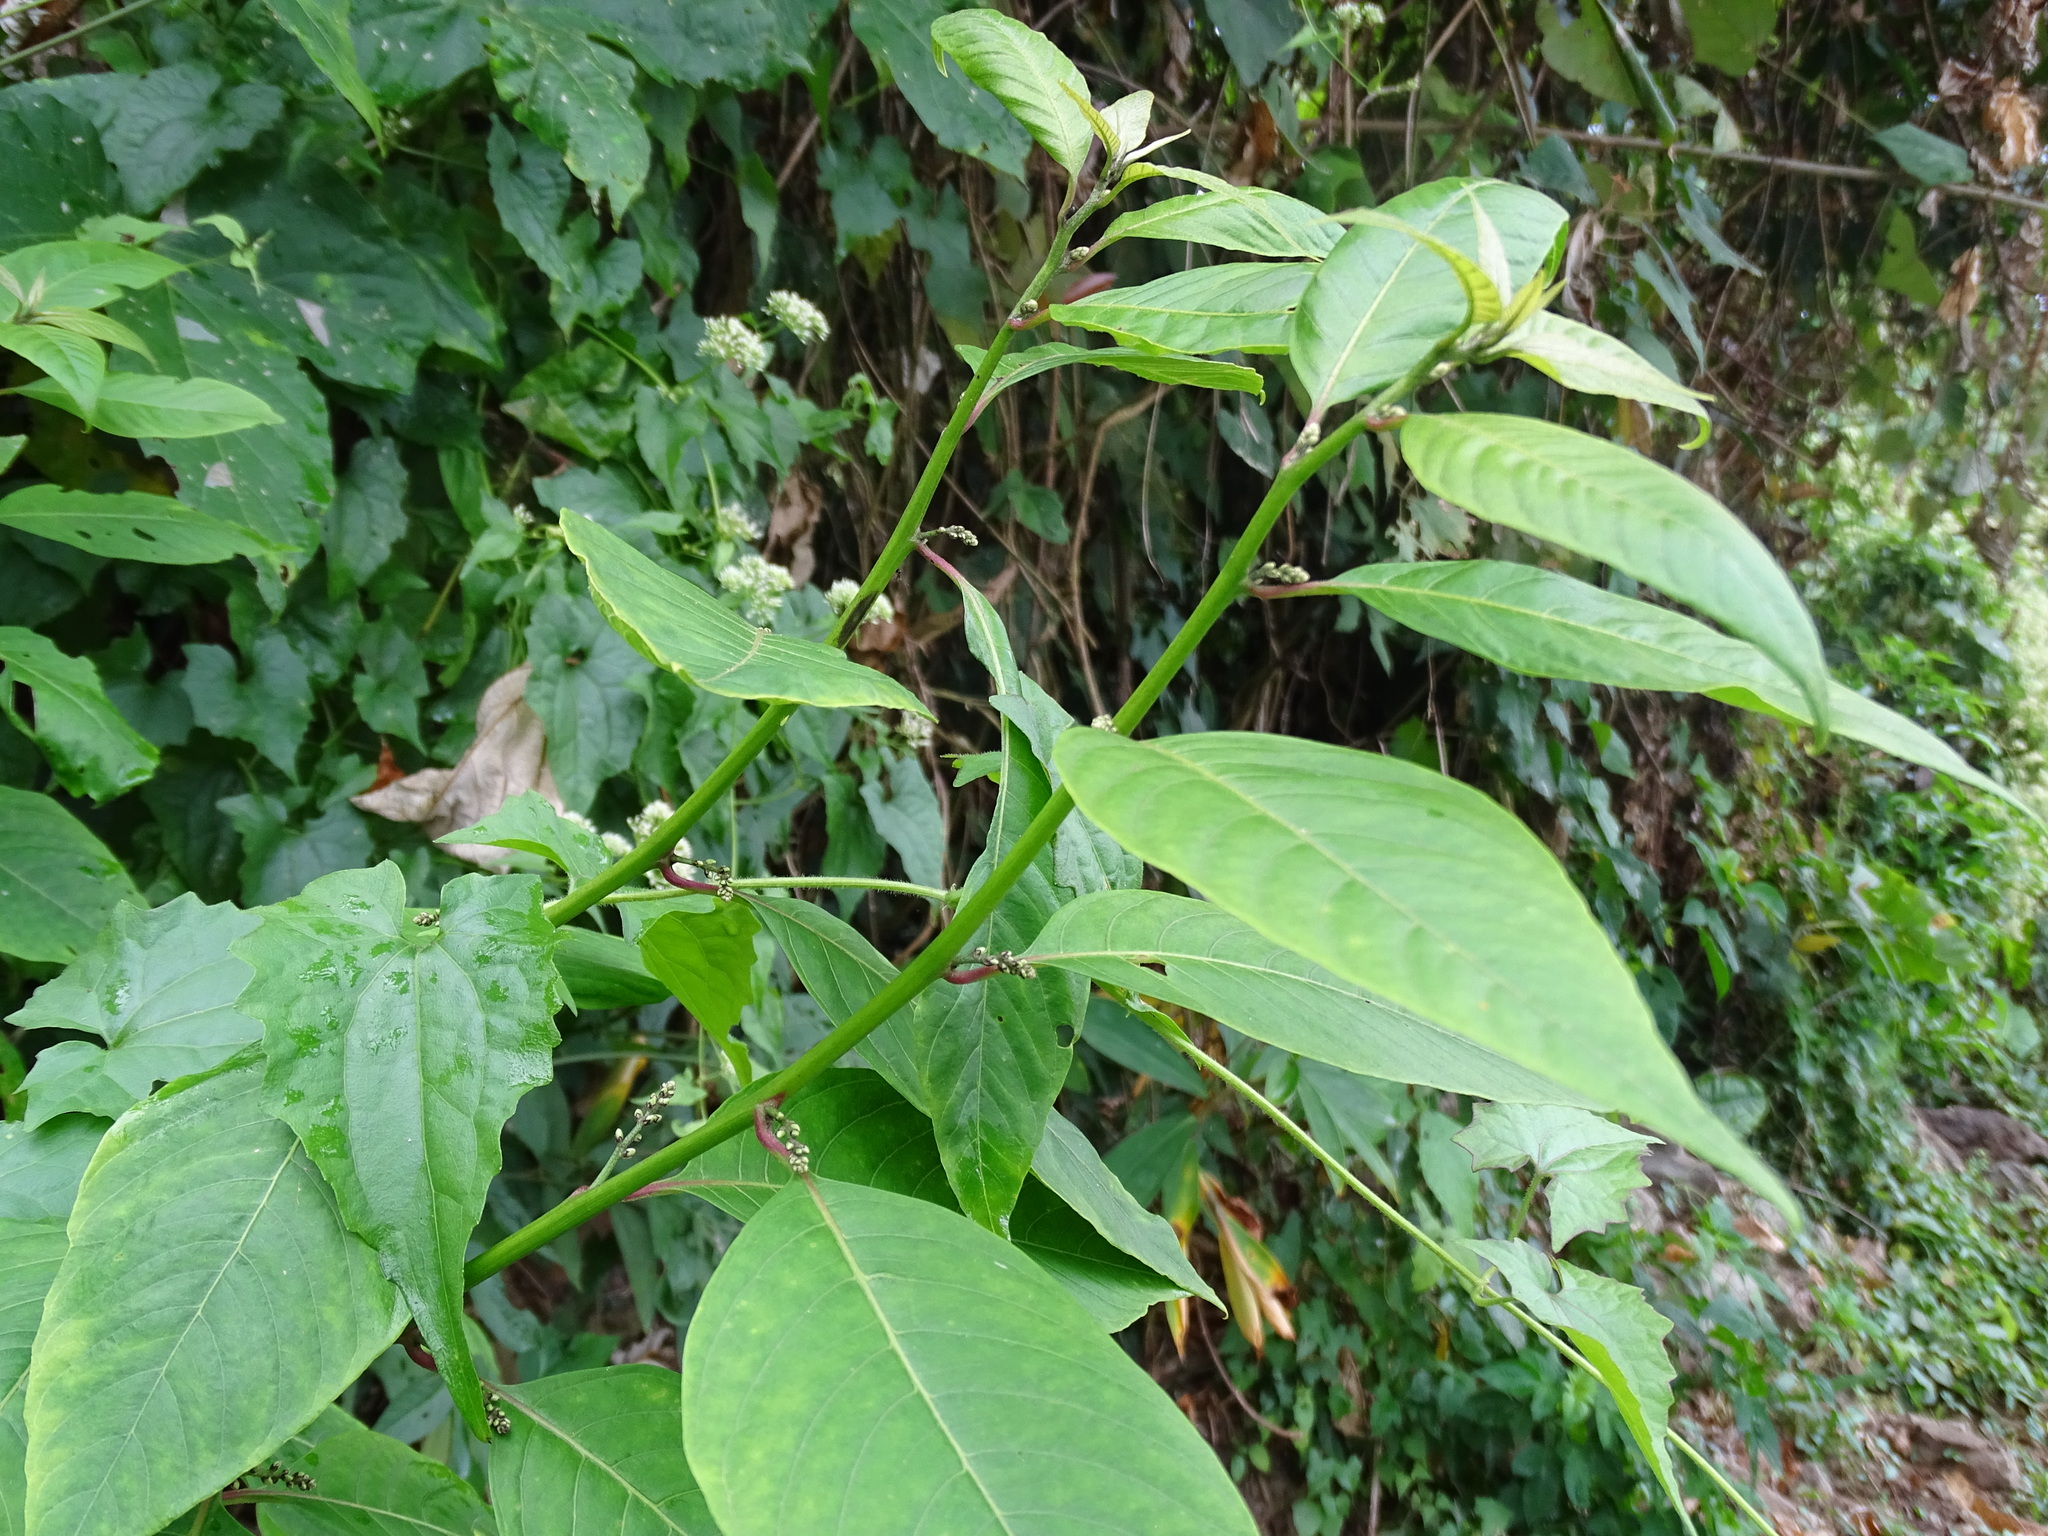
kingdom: Plantae
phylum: Tracheophyta
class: Magnoliopsida
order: Caryophyllales
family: Amaranthaceae
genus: Deeringia
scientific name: Deeringia polysperma
